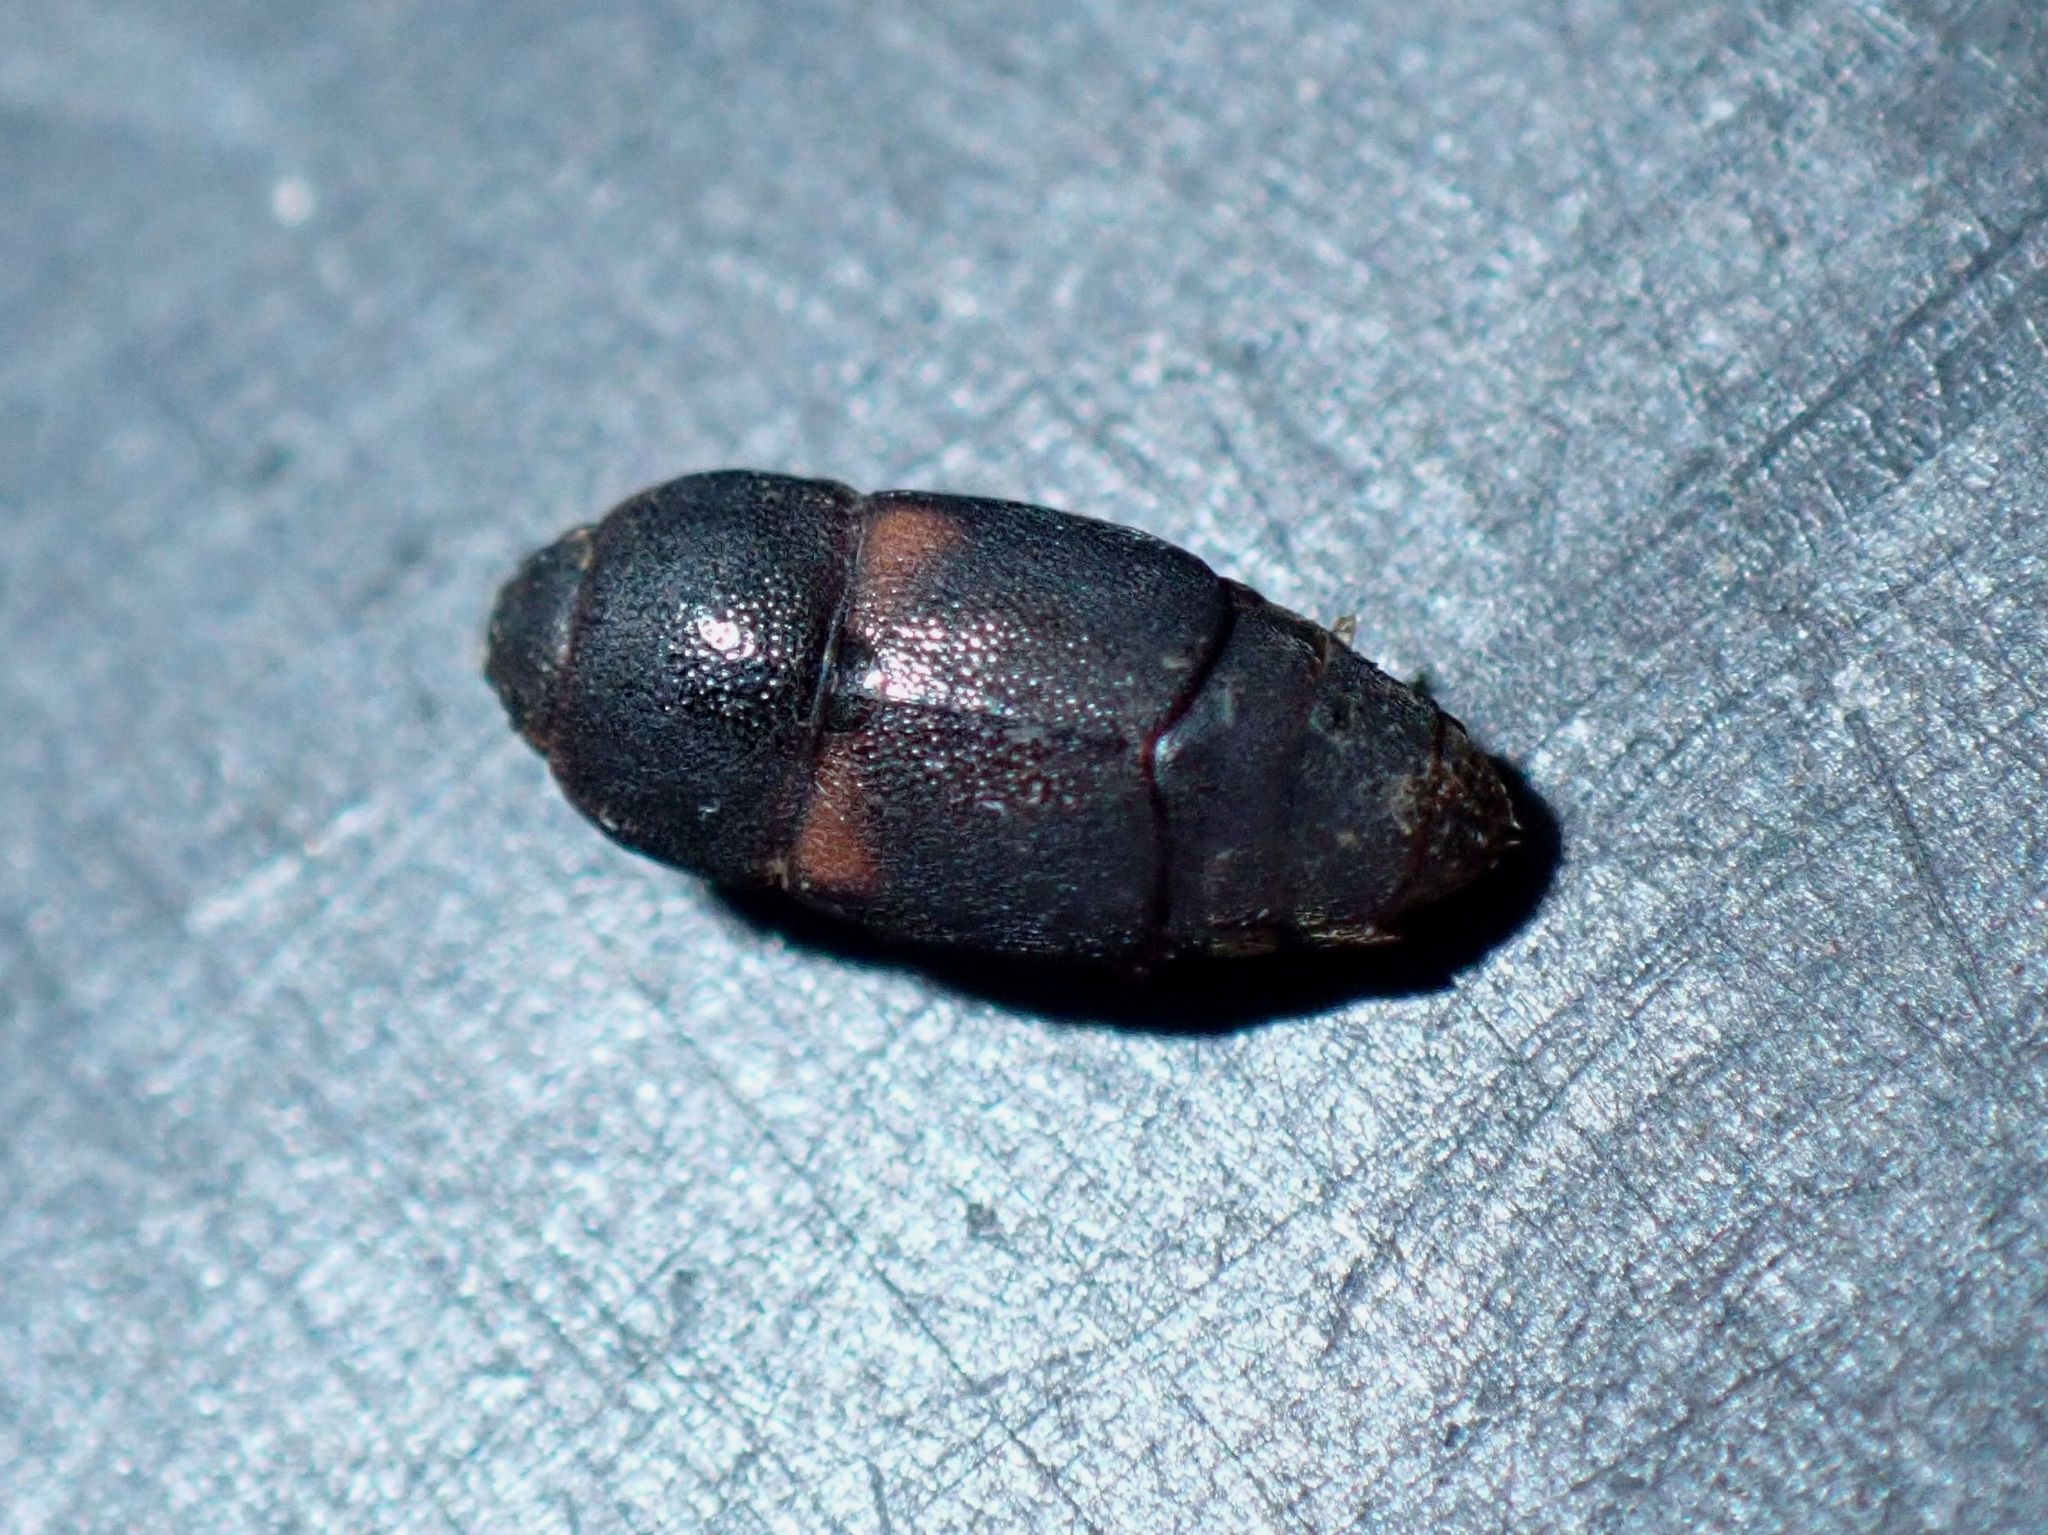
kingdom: Animalia
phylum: Arthropoda
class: Insecta
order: Coleoptera
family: Nitidulidae
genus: Urophorus
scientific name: Urophorus humeralis
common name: Sap beetle
